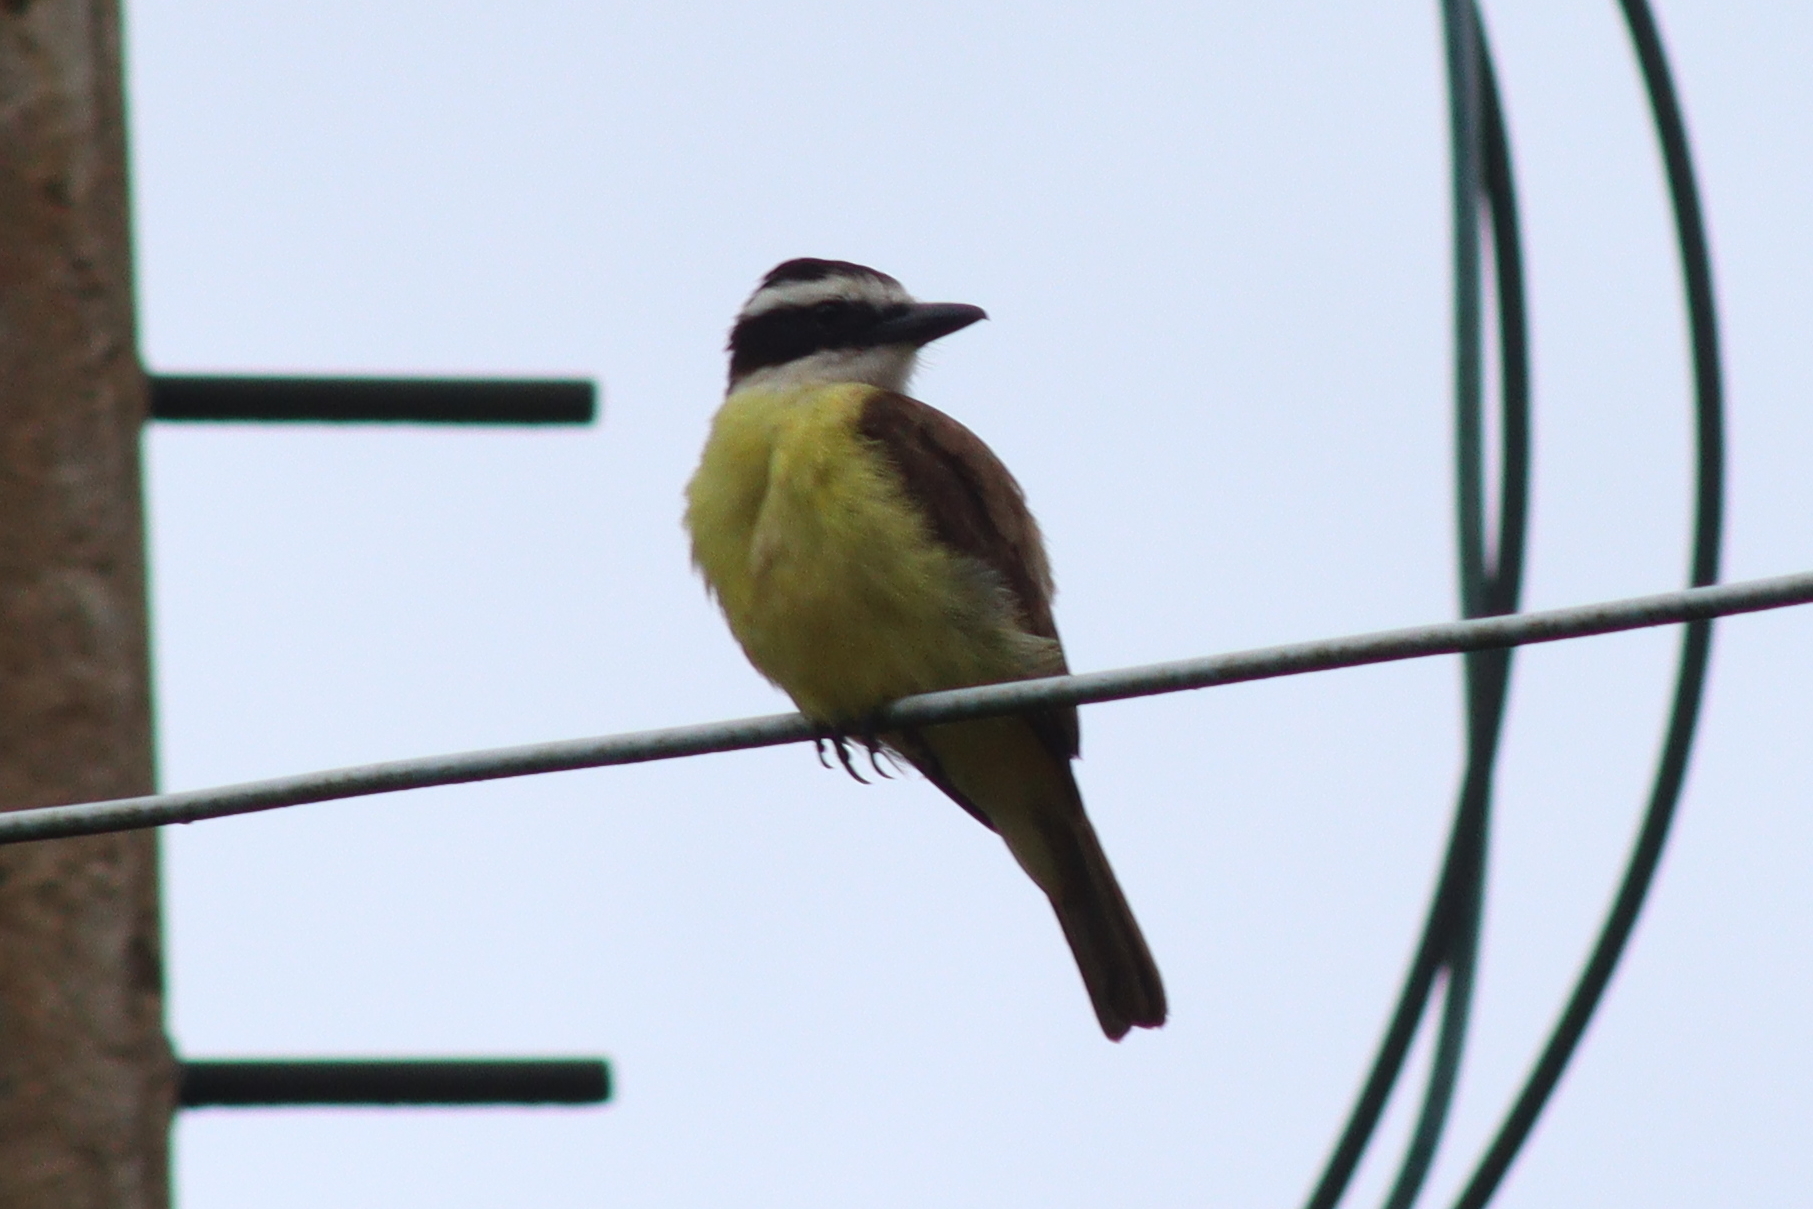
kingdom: Animalia
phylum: Chordata
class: Aves
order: Passeriformes
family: Tyrannidae
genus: Pitangus
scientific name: Pitangus sulphuratus
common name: Great kiskadee
